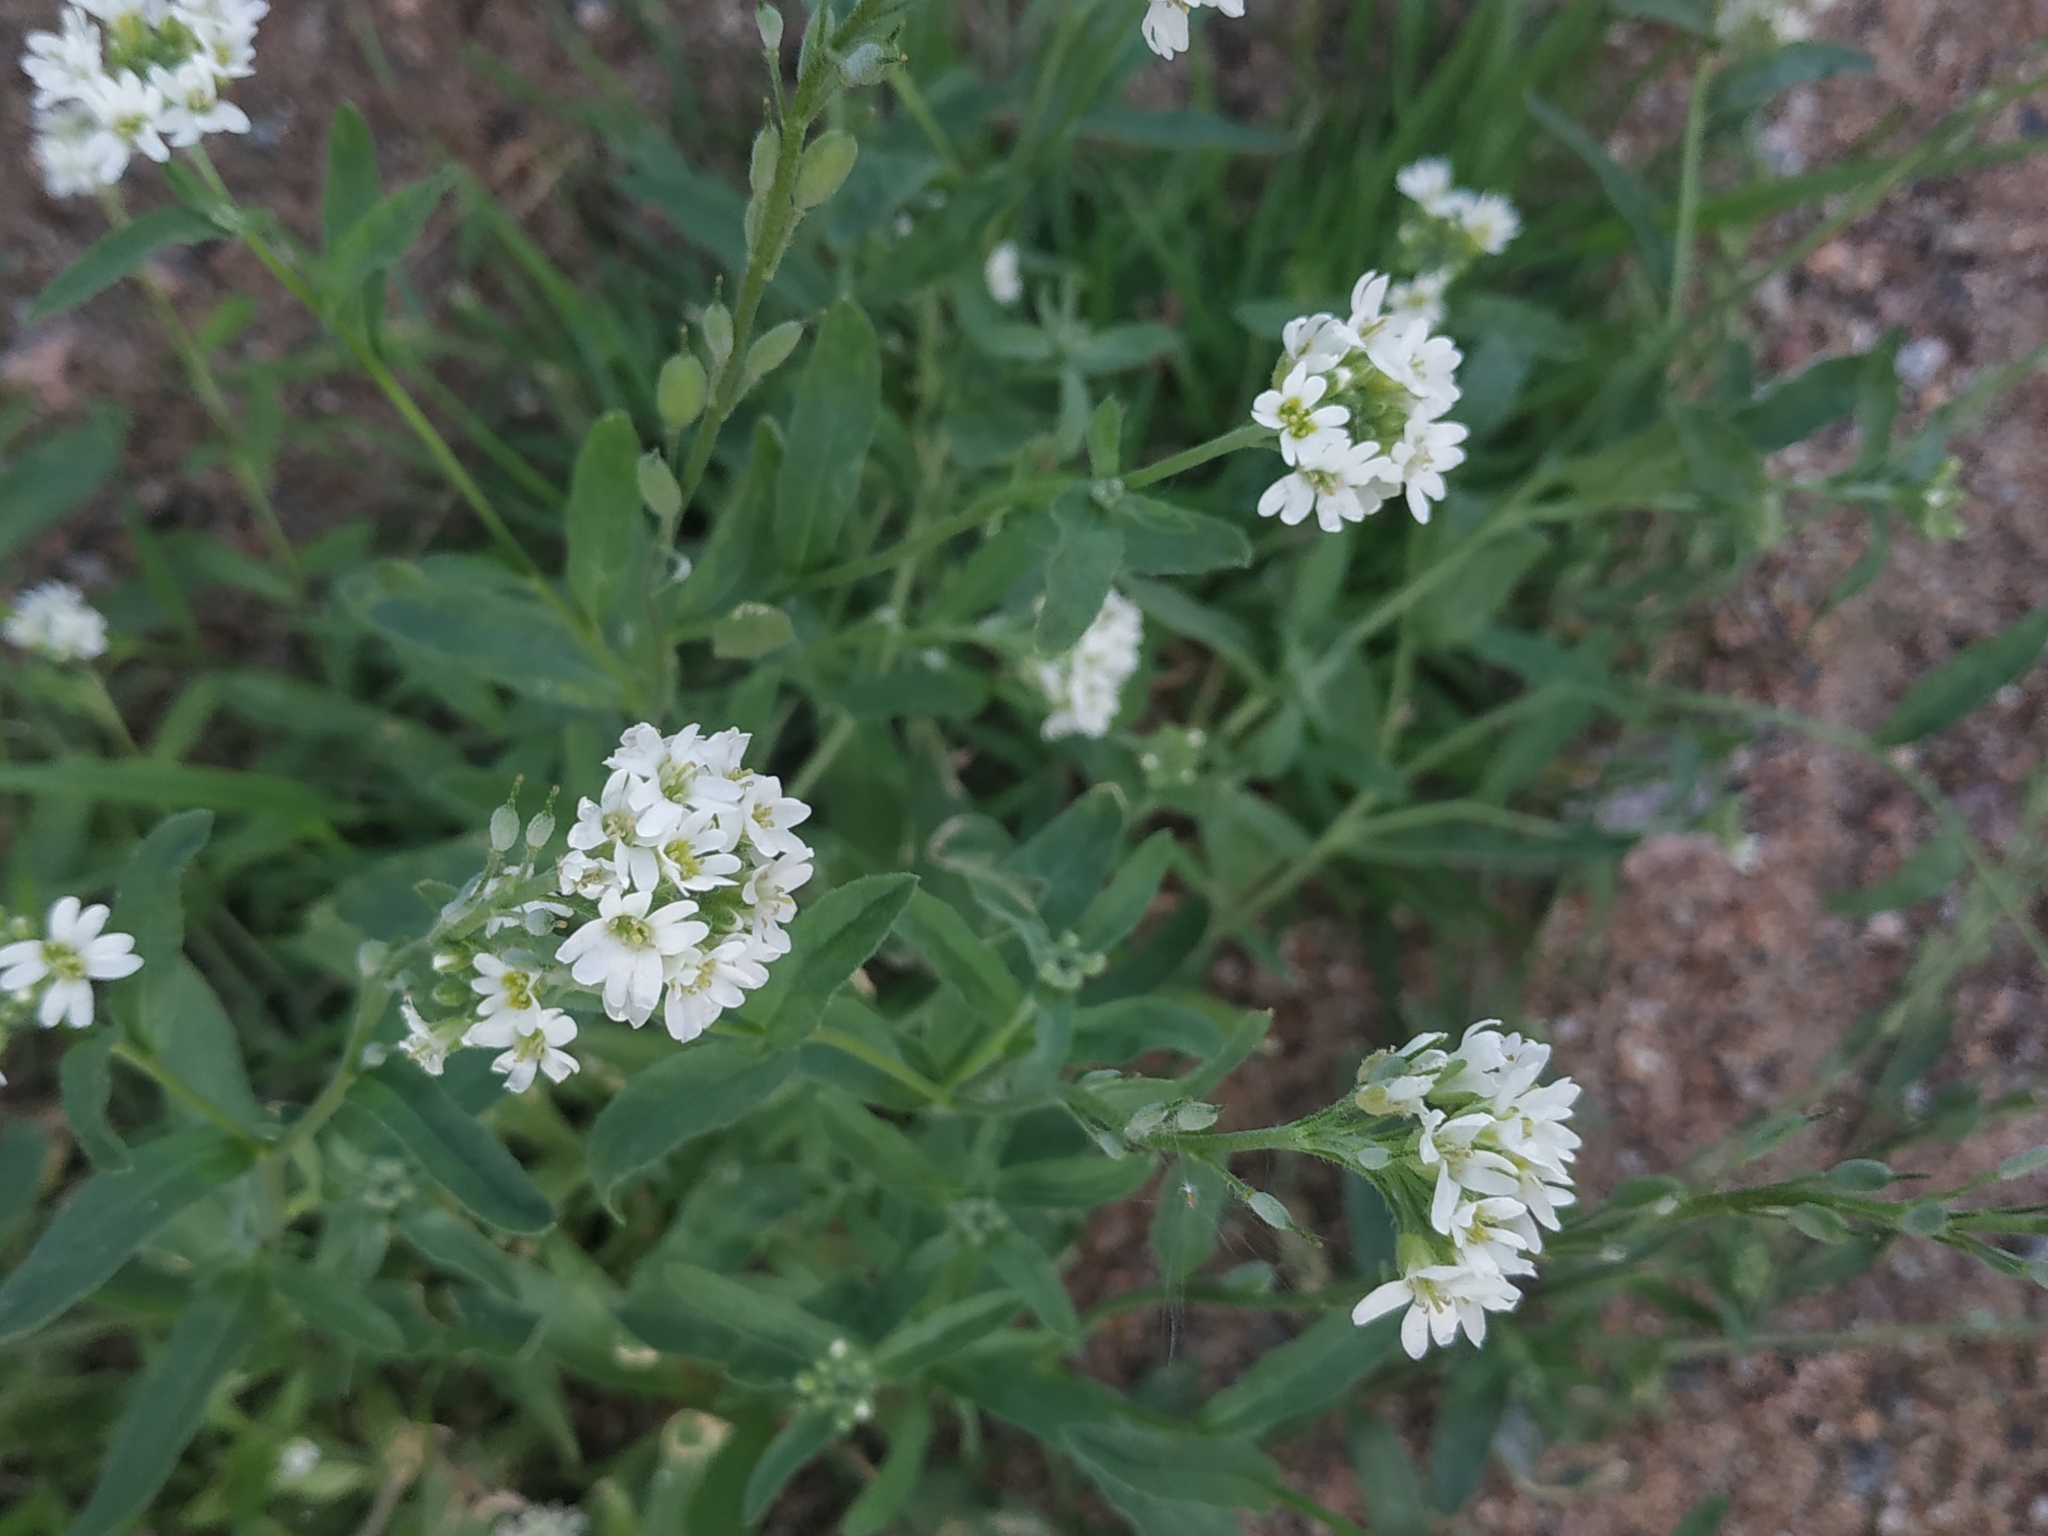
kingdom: Plantae
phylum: Tracheophyta
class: Magnoliopsida
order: Brassicales
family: Brassicaceae
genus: Berteroa
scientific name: Berteroa incana
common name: Hoary alison
